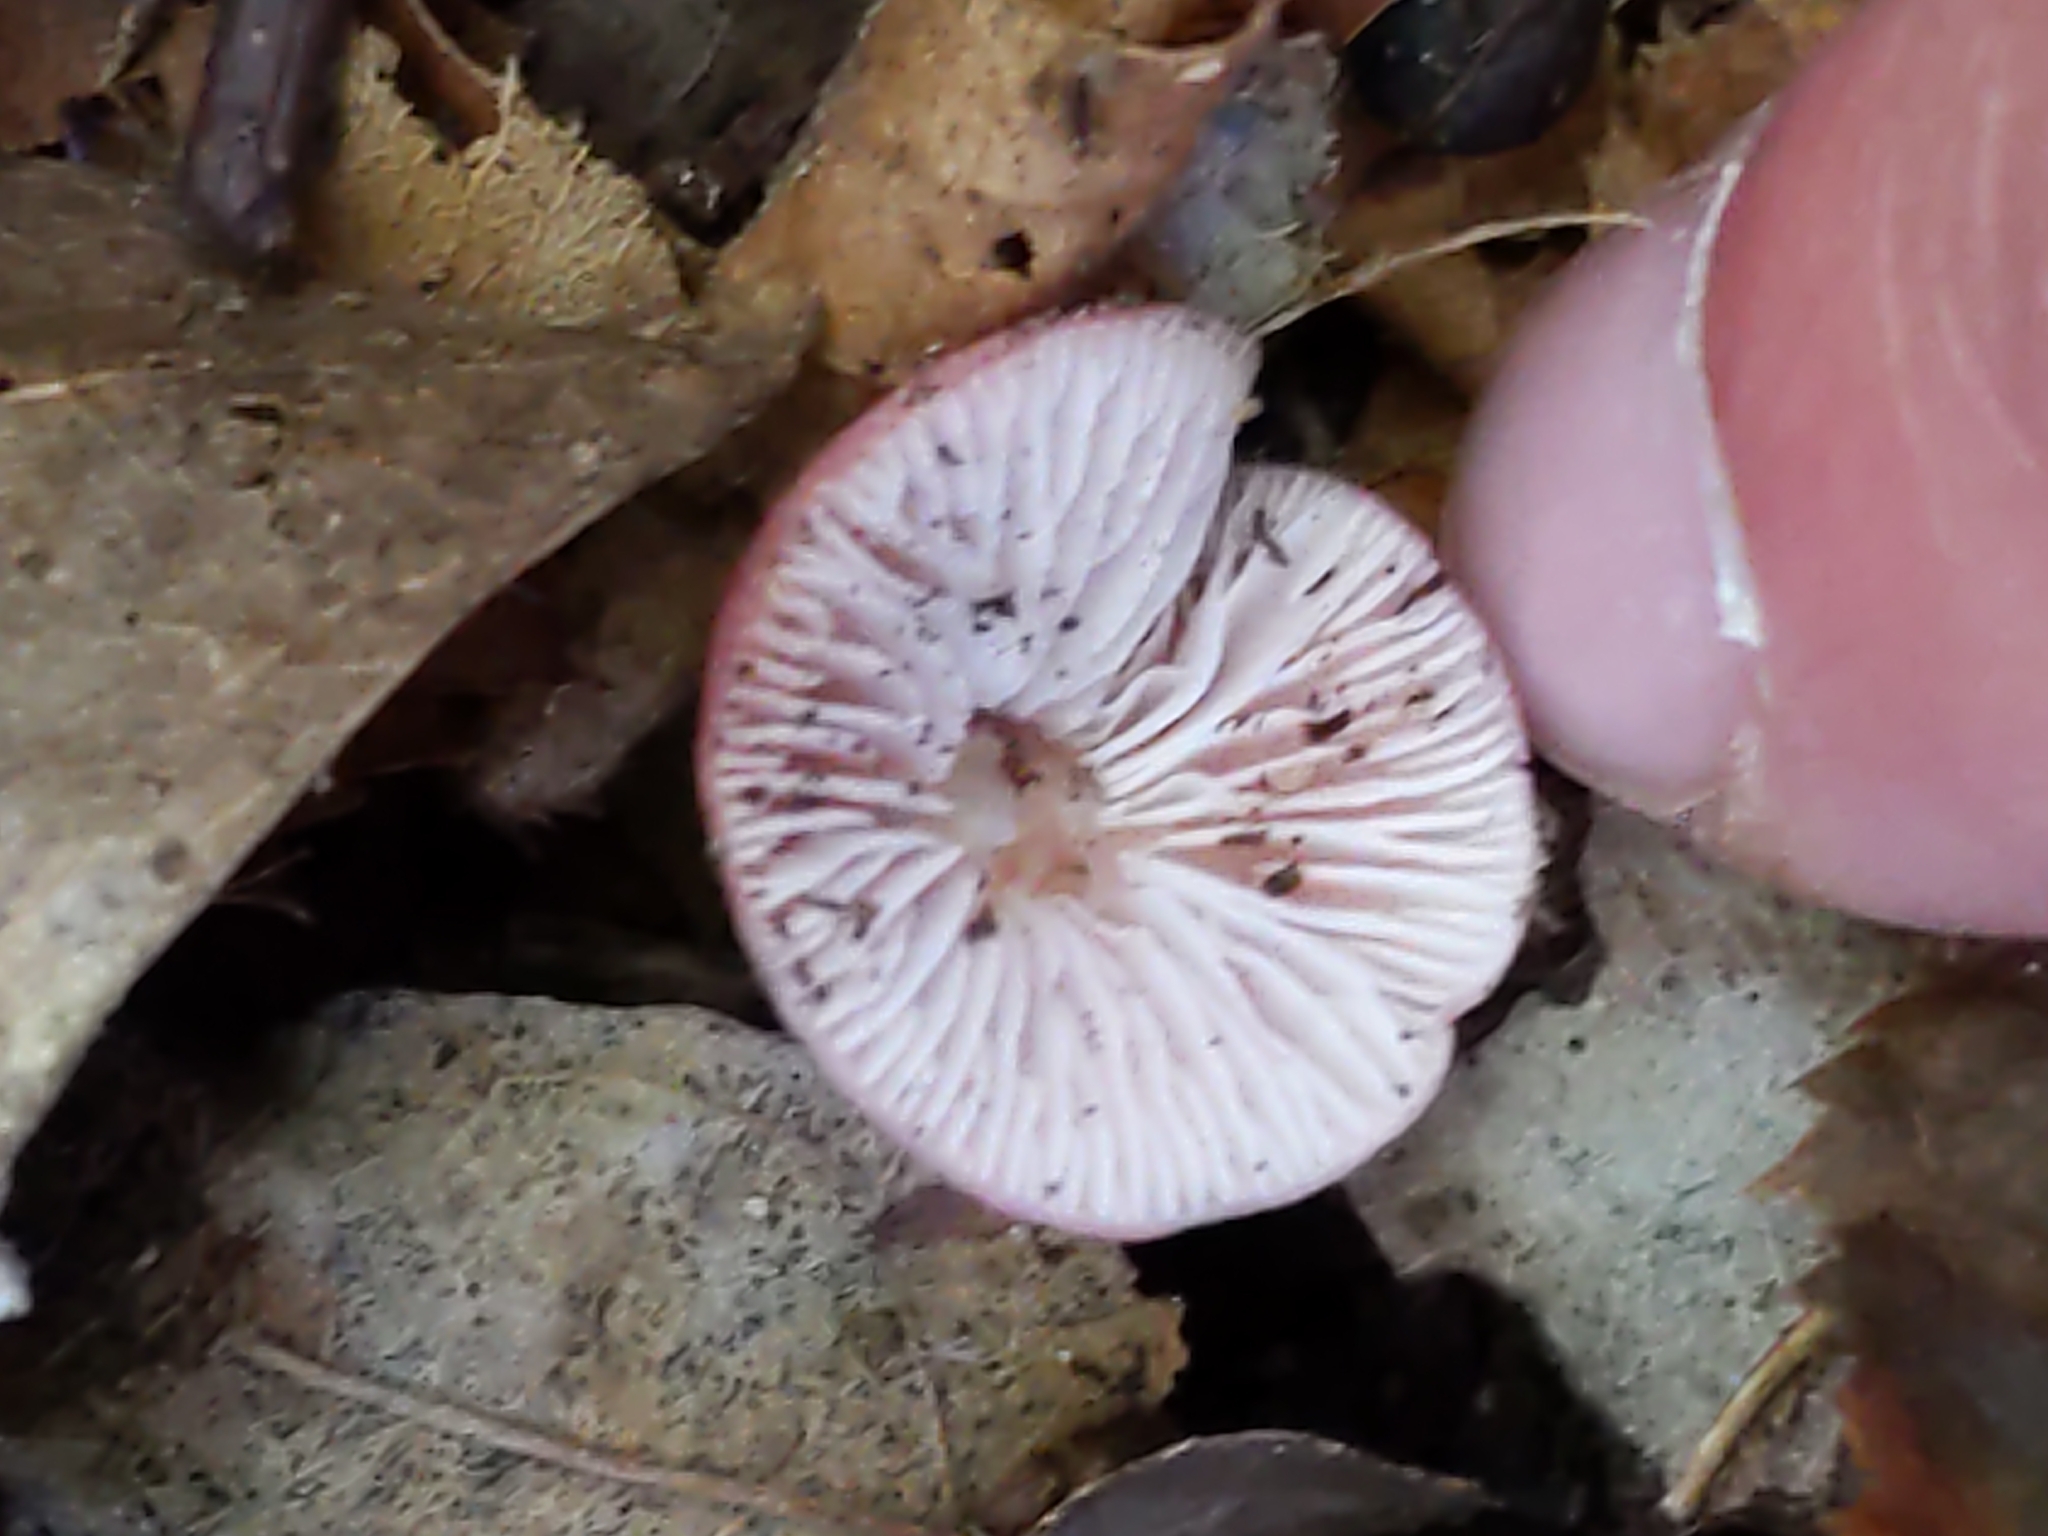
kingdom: Fungi
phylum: Basidiomycota
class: Agaricomycetes
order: Agaricales
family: Mycenaceae
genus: Mycena
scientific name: Mycena rosea
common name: Rosy bonnet
